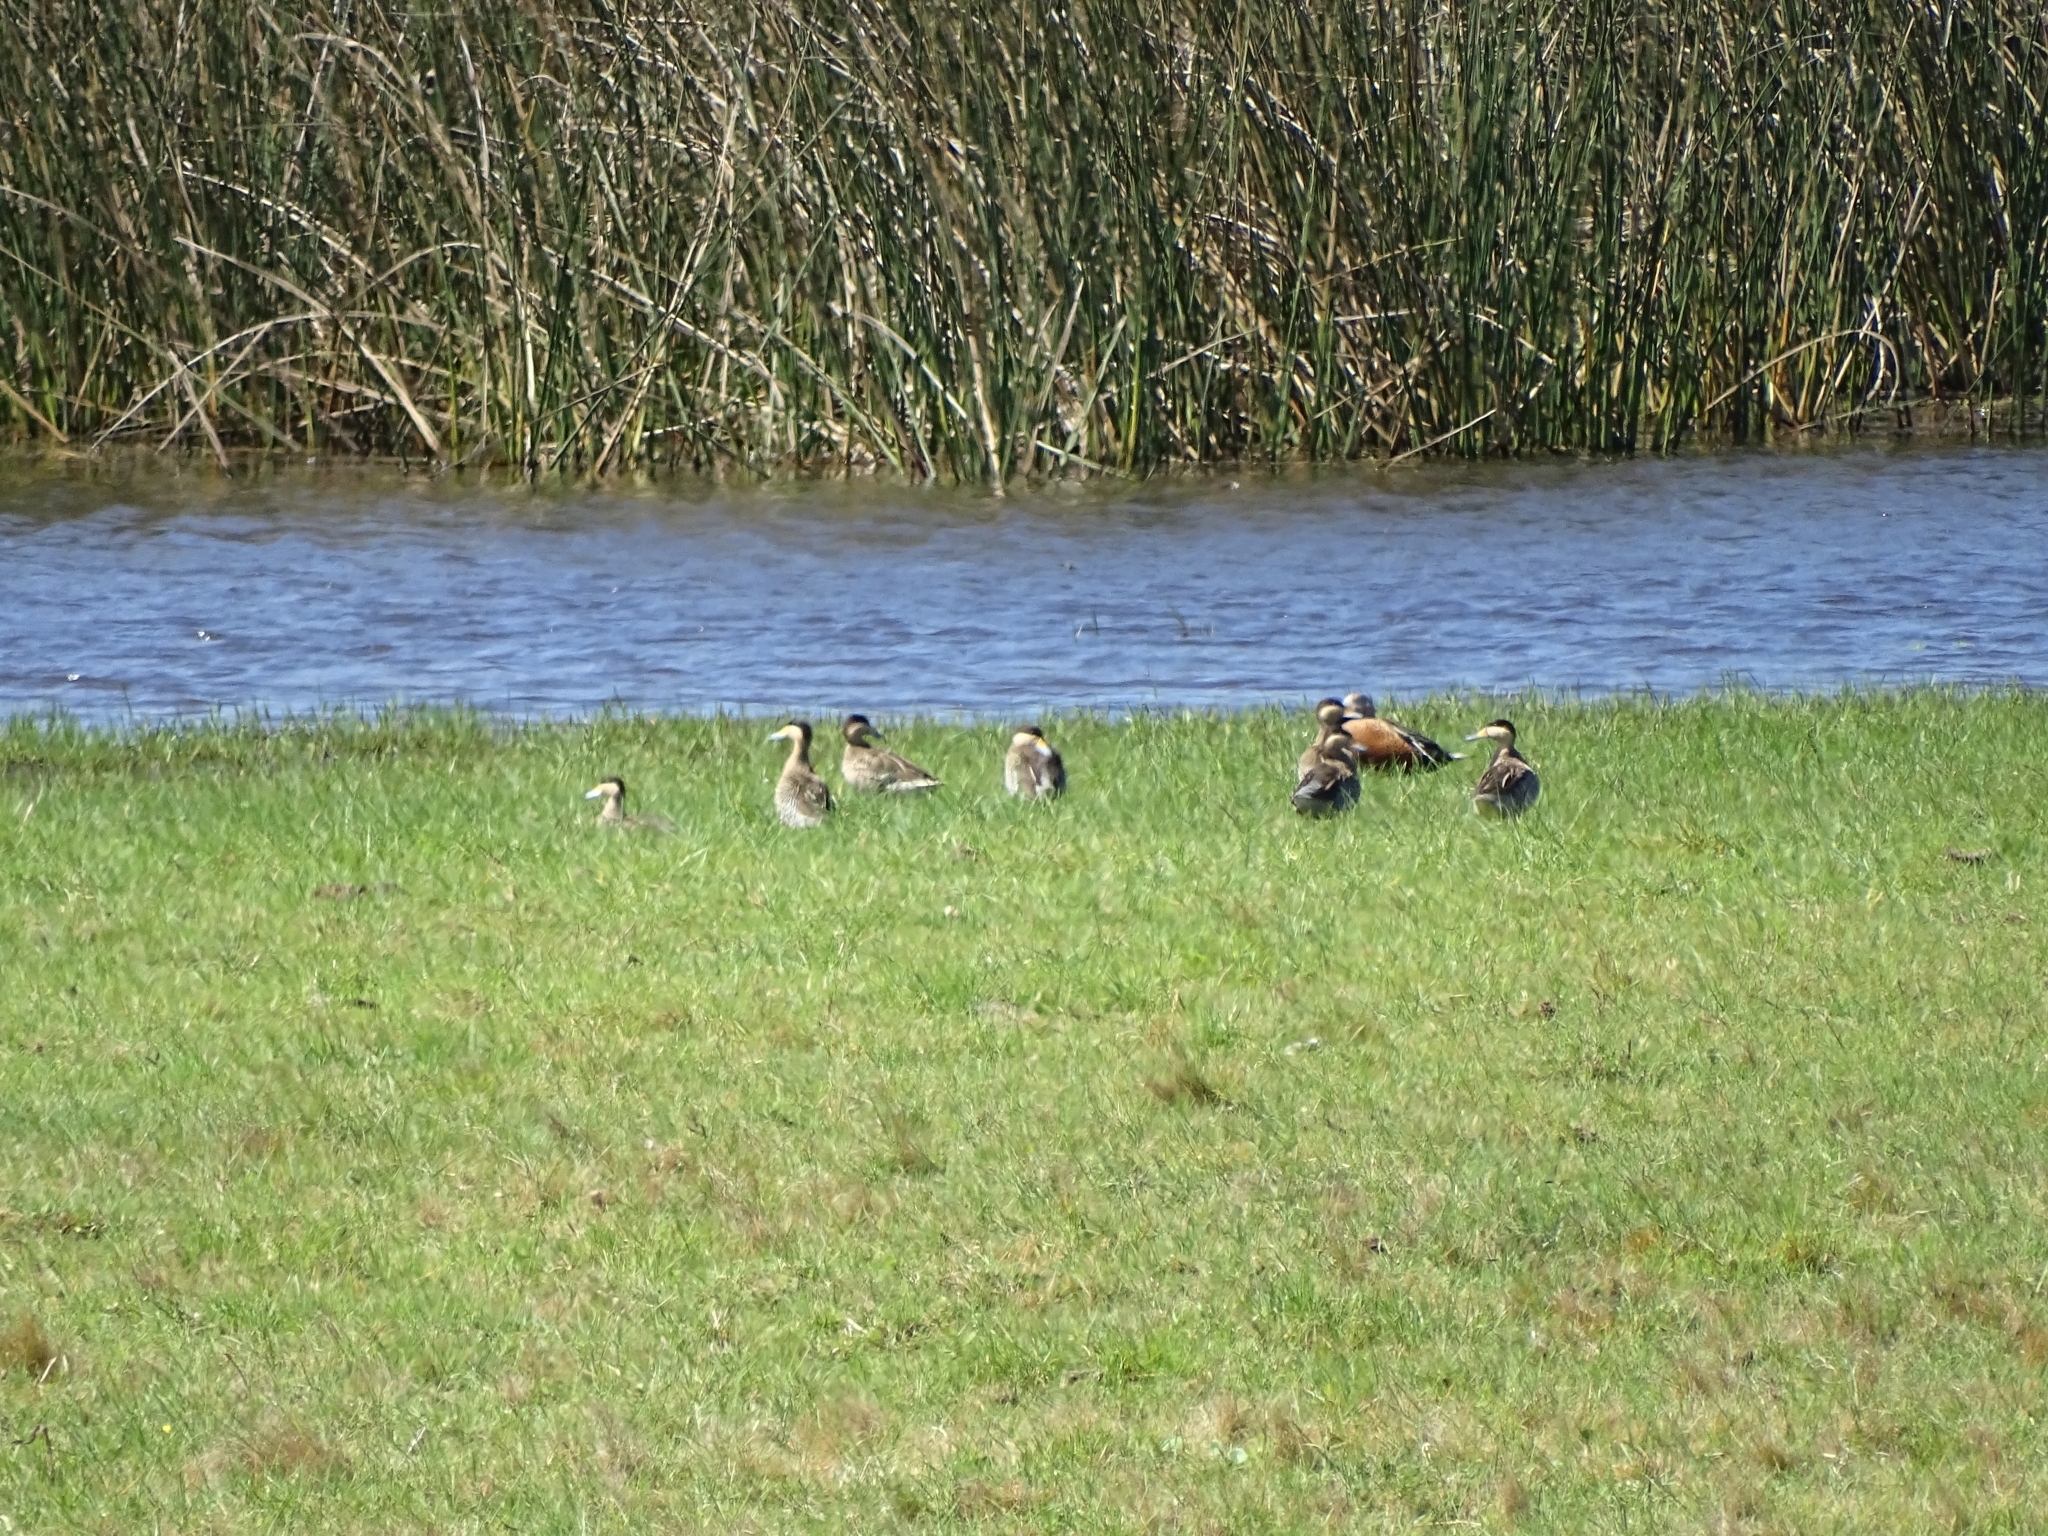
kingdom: Animalia
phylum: Chordata
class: Aves
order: Anseriformes
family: Anatidae
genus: Spatula
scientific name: Spatula versicolor
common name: Silver teal
